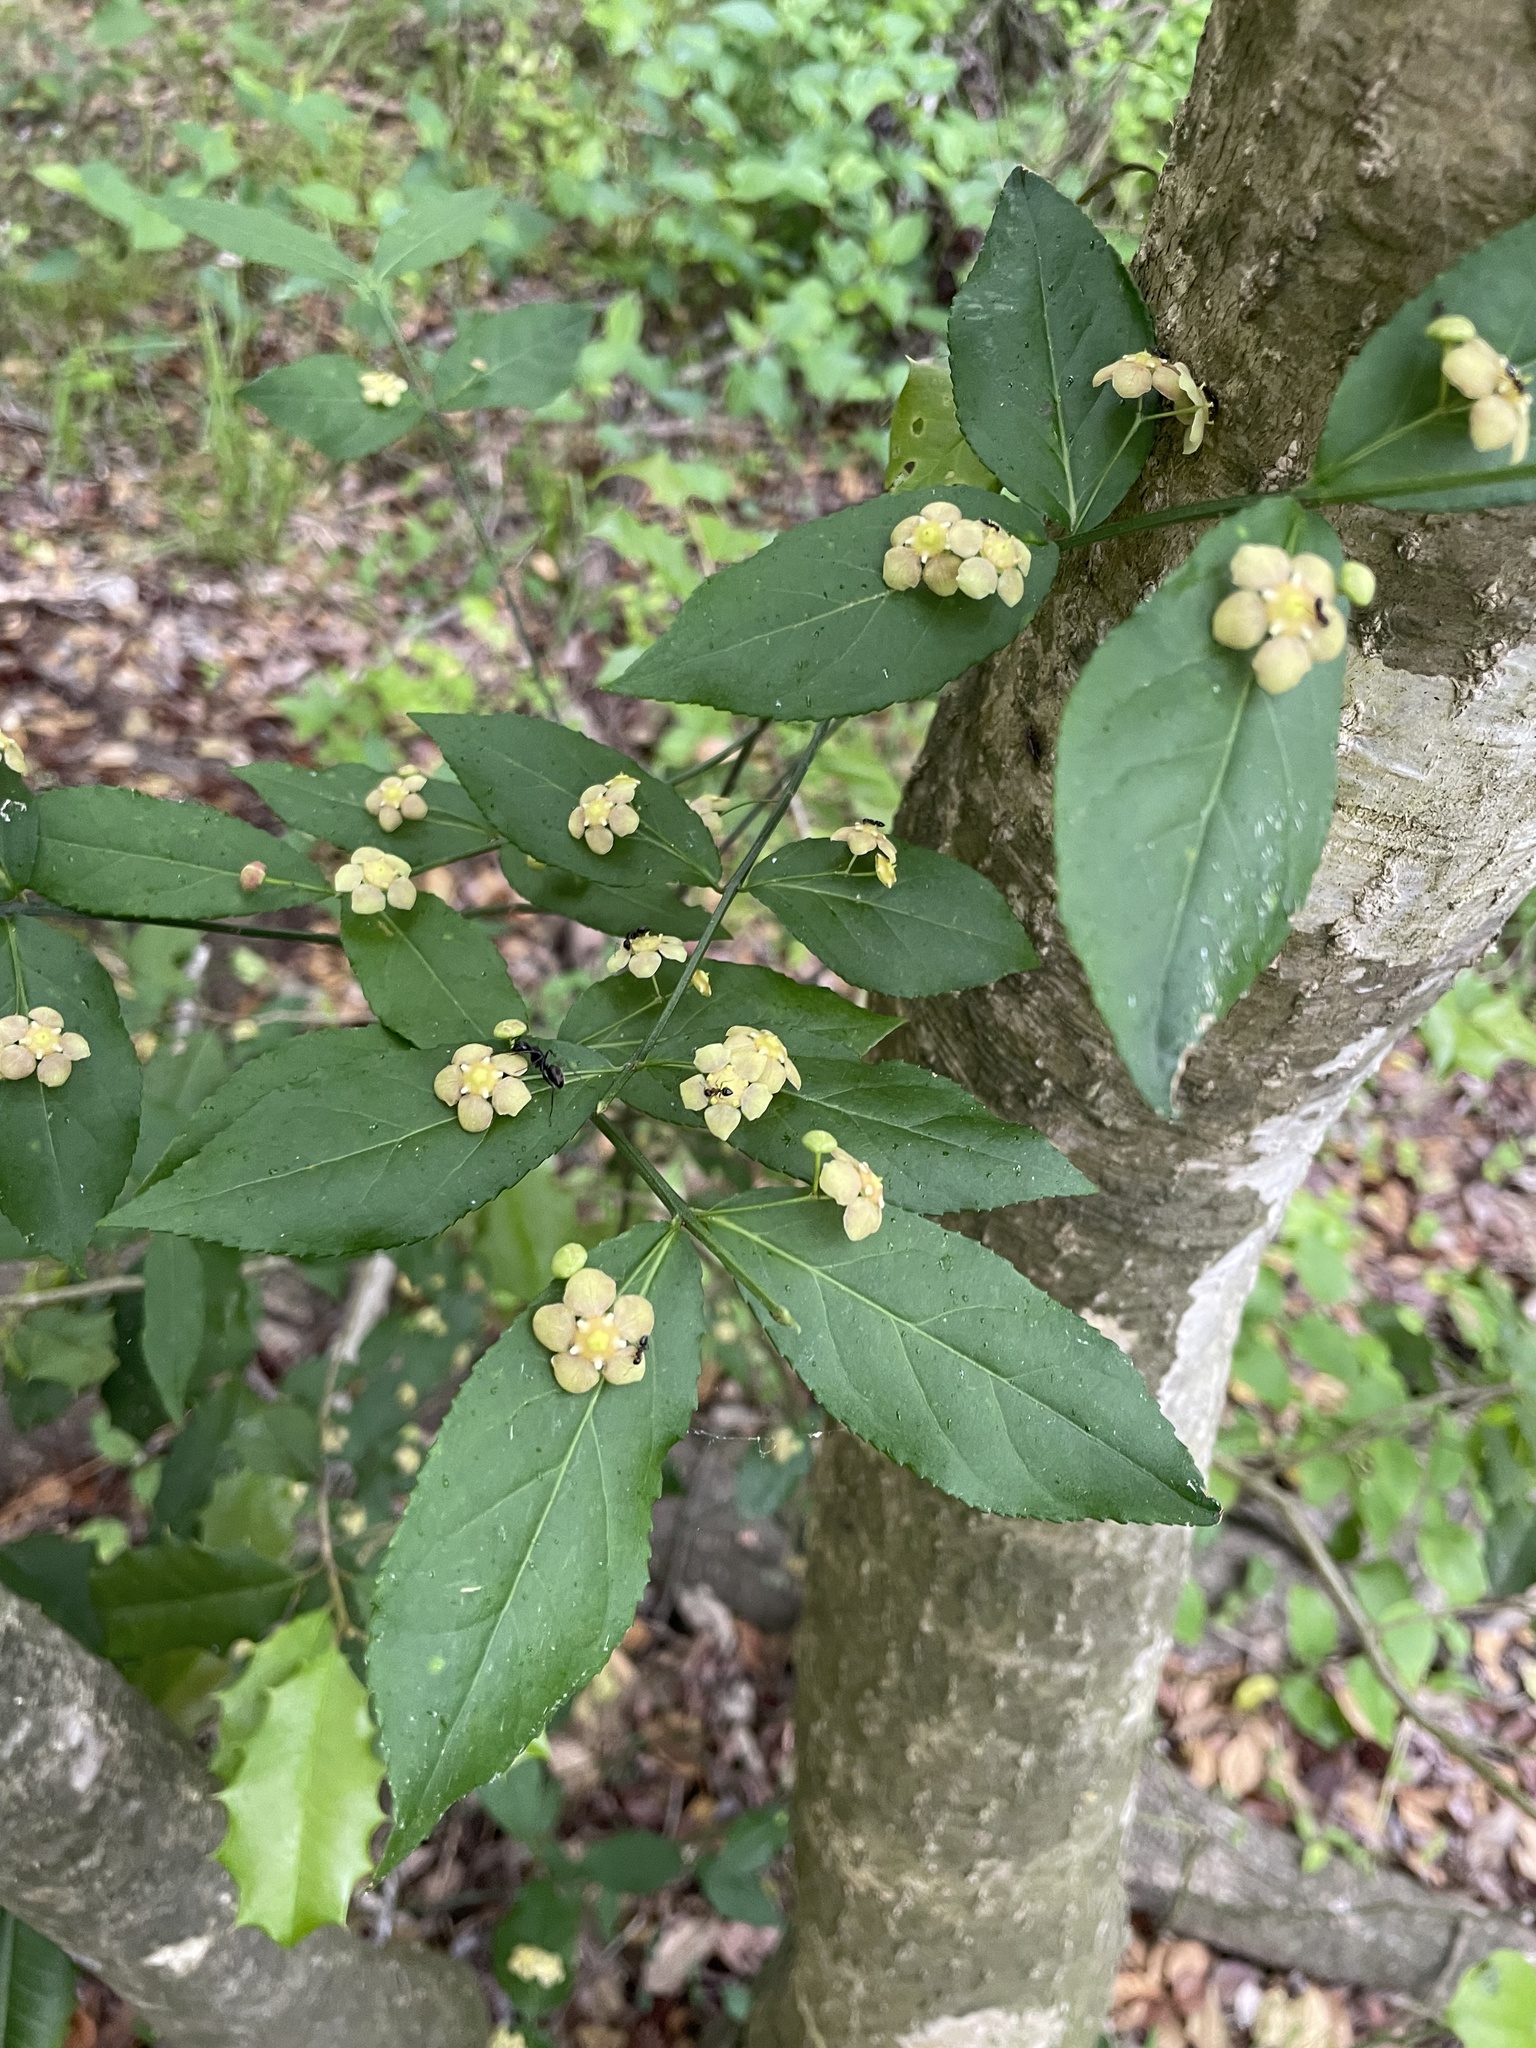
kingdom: Plantae
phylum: Tracheophyta
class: Magnoliopsida
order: Celastrales
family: Celastraceae
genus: Euonymus
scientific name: Euonymus americanus
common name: Bursting-heart
